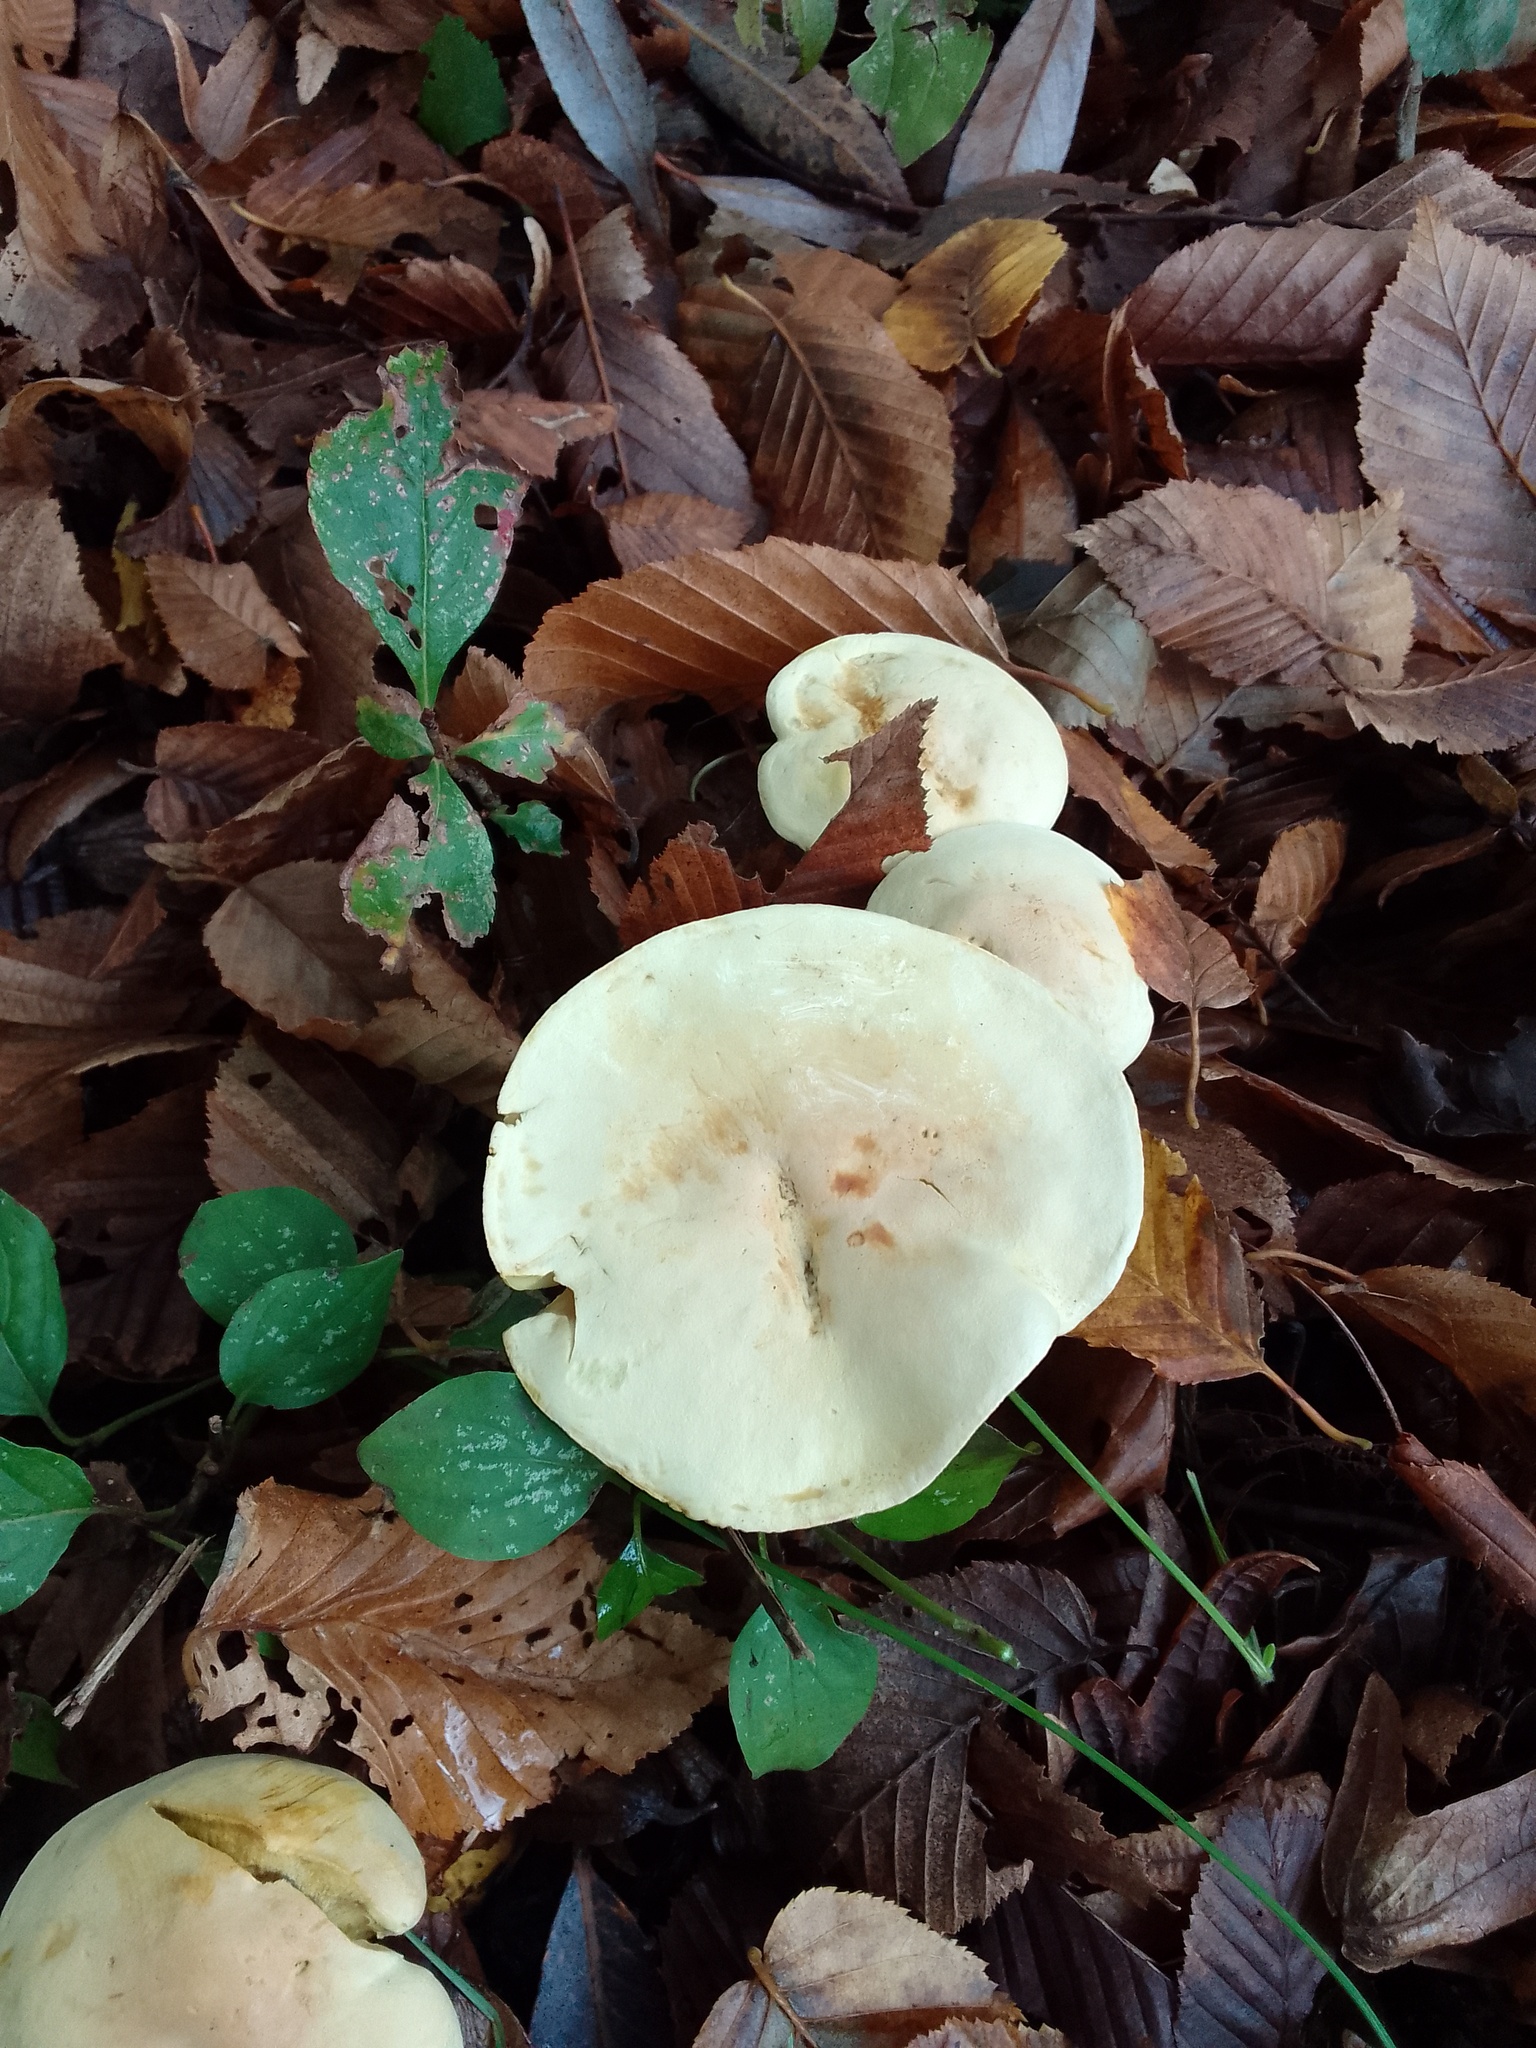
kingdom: Fungi
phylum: Basidiomycota
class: Agaricomycetes
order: Agaricales
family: Tricholomataceae
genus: Tricholoma
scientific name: Tricholoma sulphureum
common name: Stinky knight
